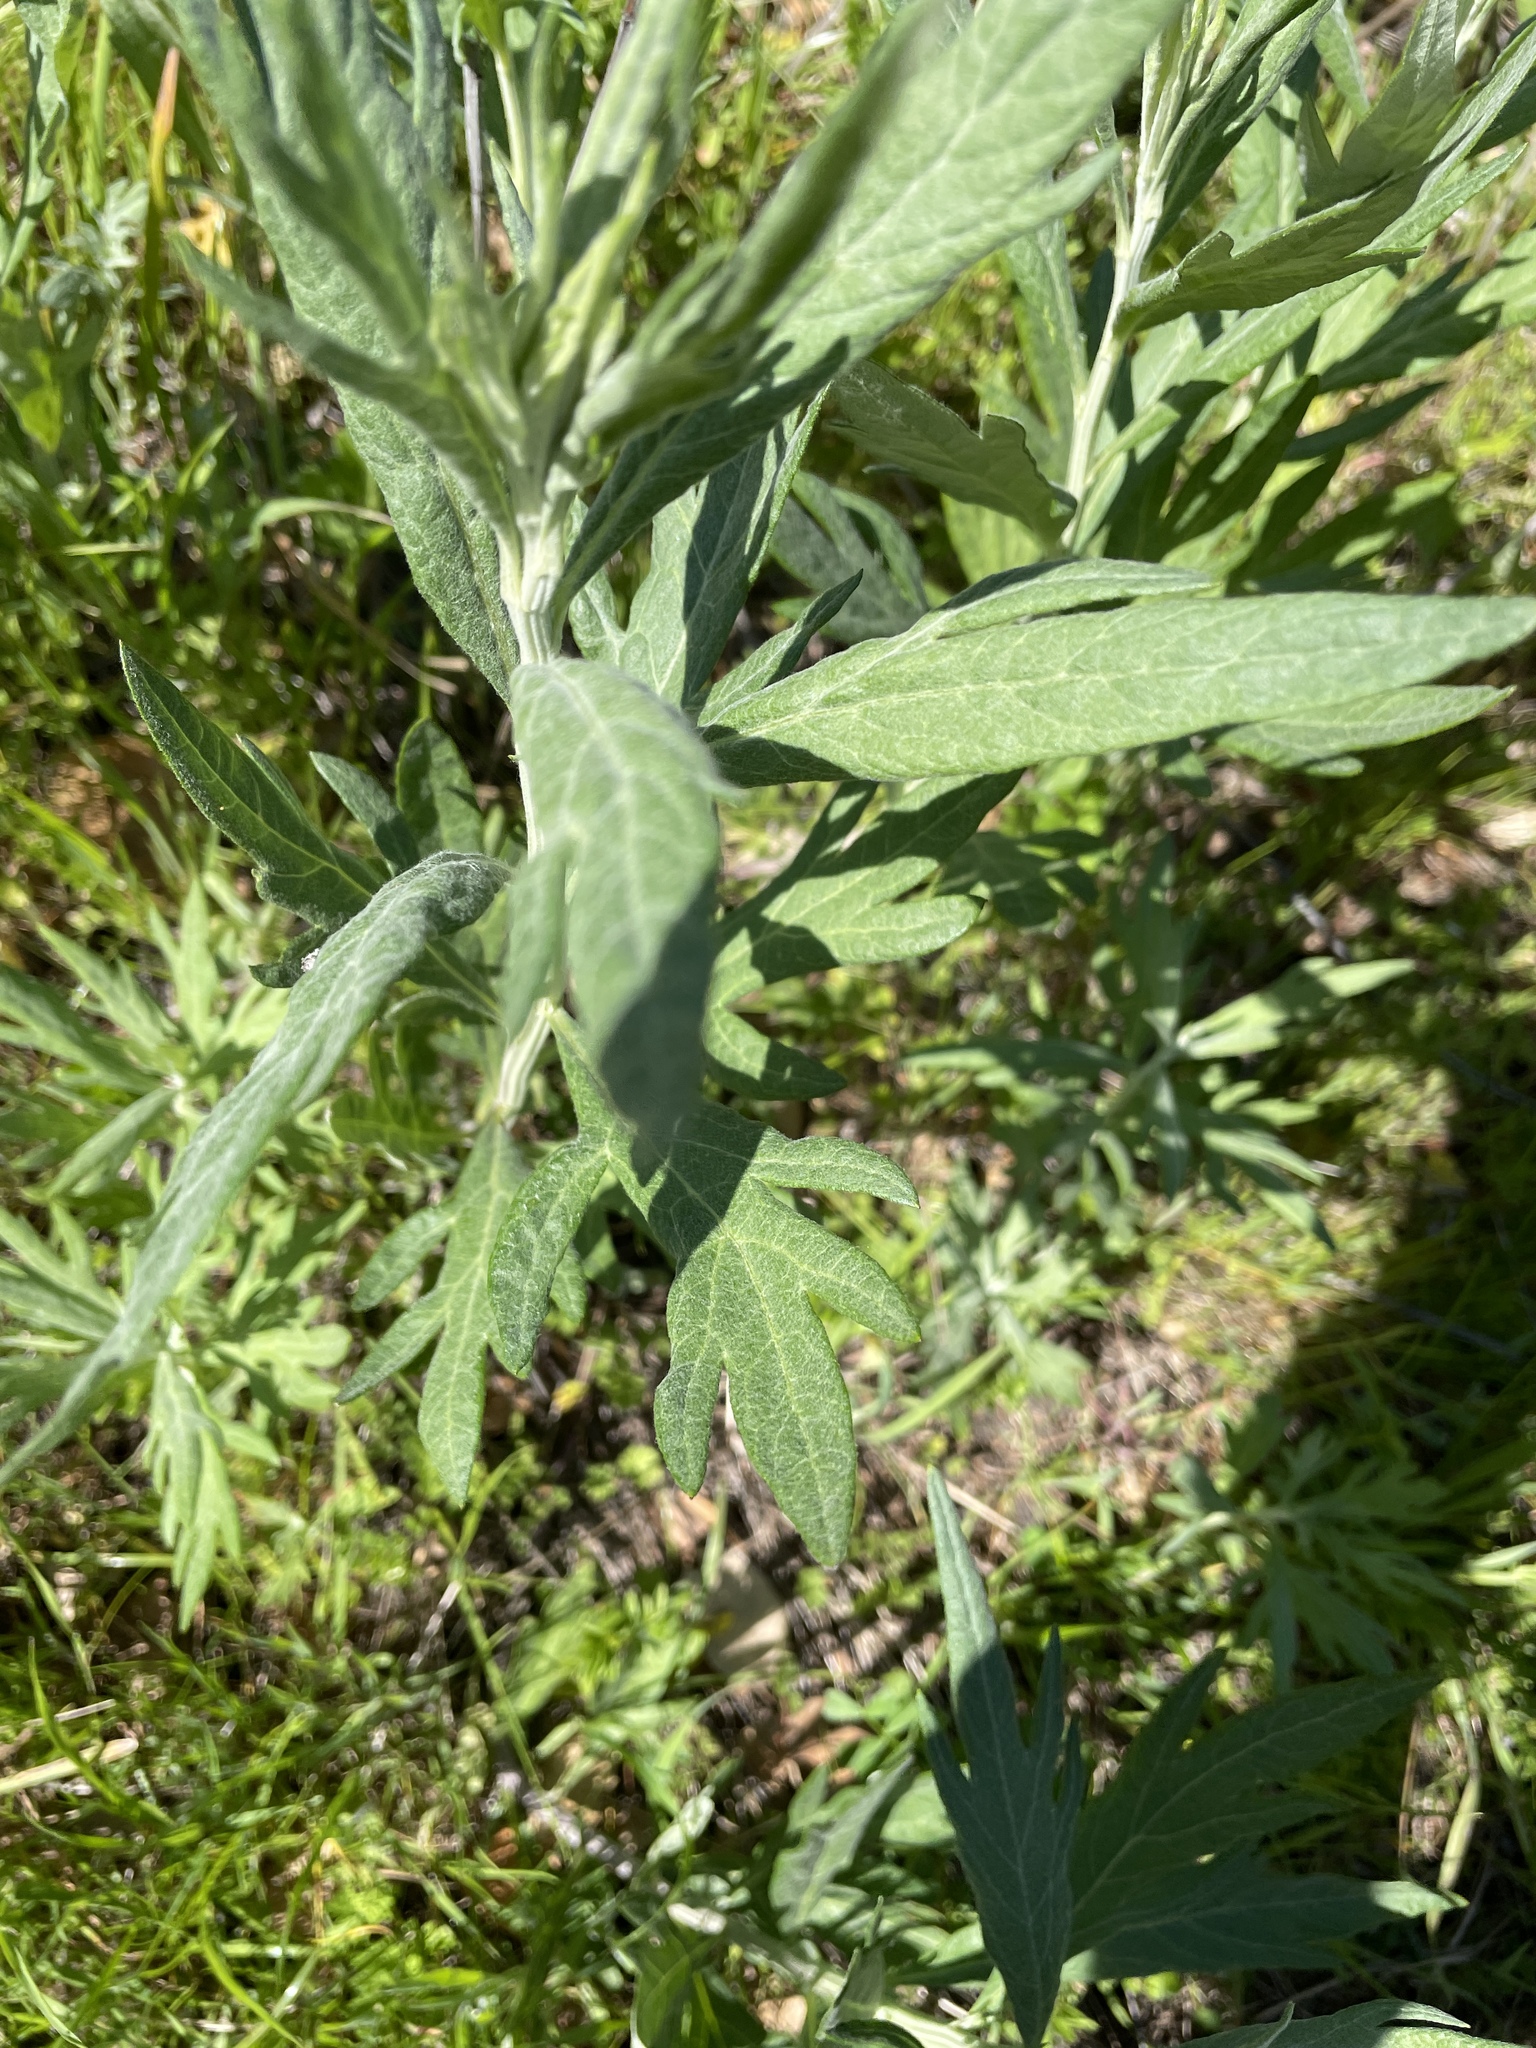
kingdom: Plantae
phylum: Tracheophyta
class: Magnoliopsida
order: Asterales
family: Asteraceae
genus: Artemisia
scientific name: Artemisia douglasiana
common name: Northwest mugwort
